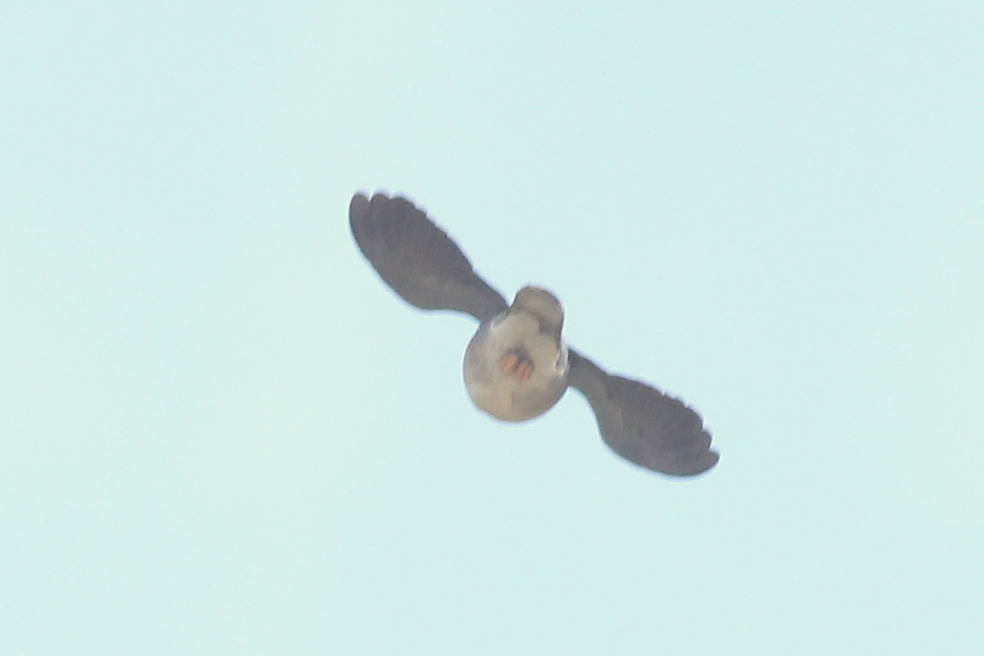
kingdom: Animalia
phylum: Chordata
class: Aves
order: Columbiformes
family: Columbidae
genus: Patagioenas
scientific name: Patagioenas fasciata
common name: Band-tailed pigeon
